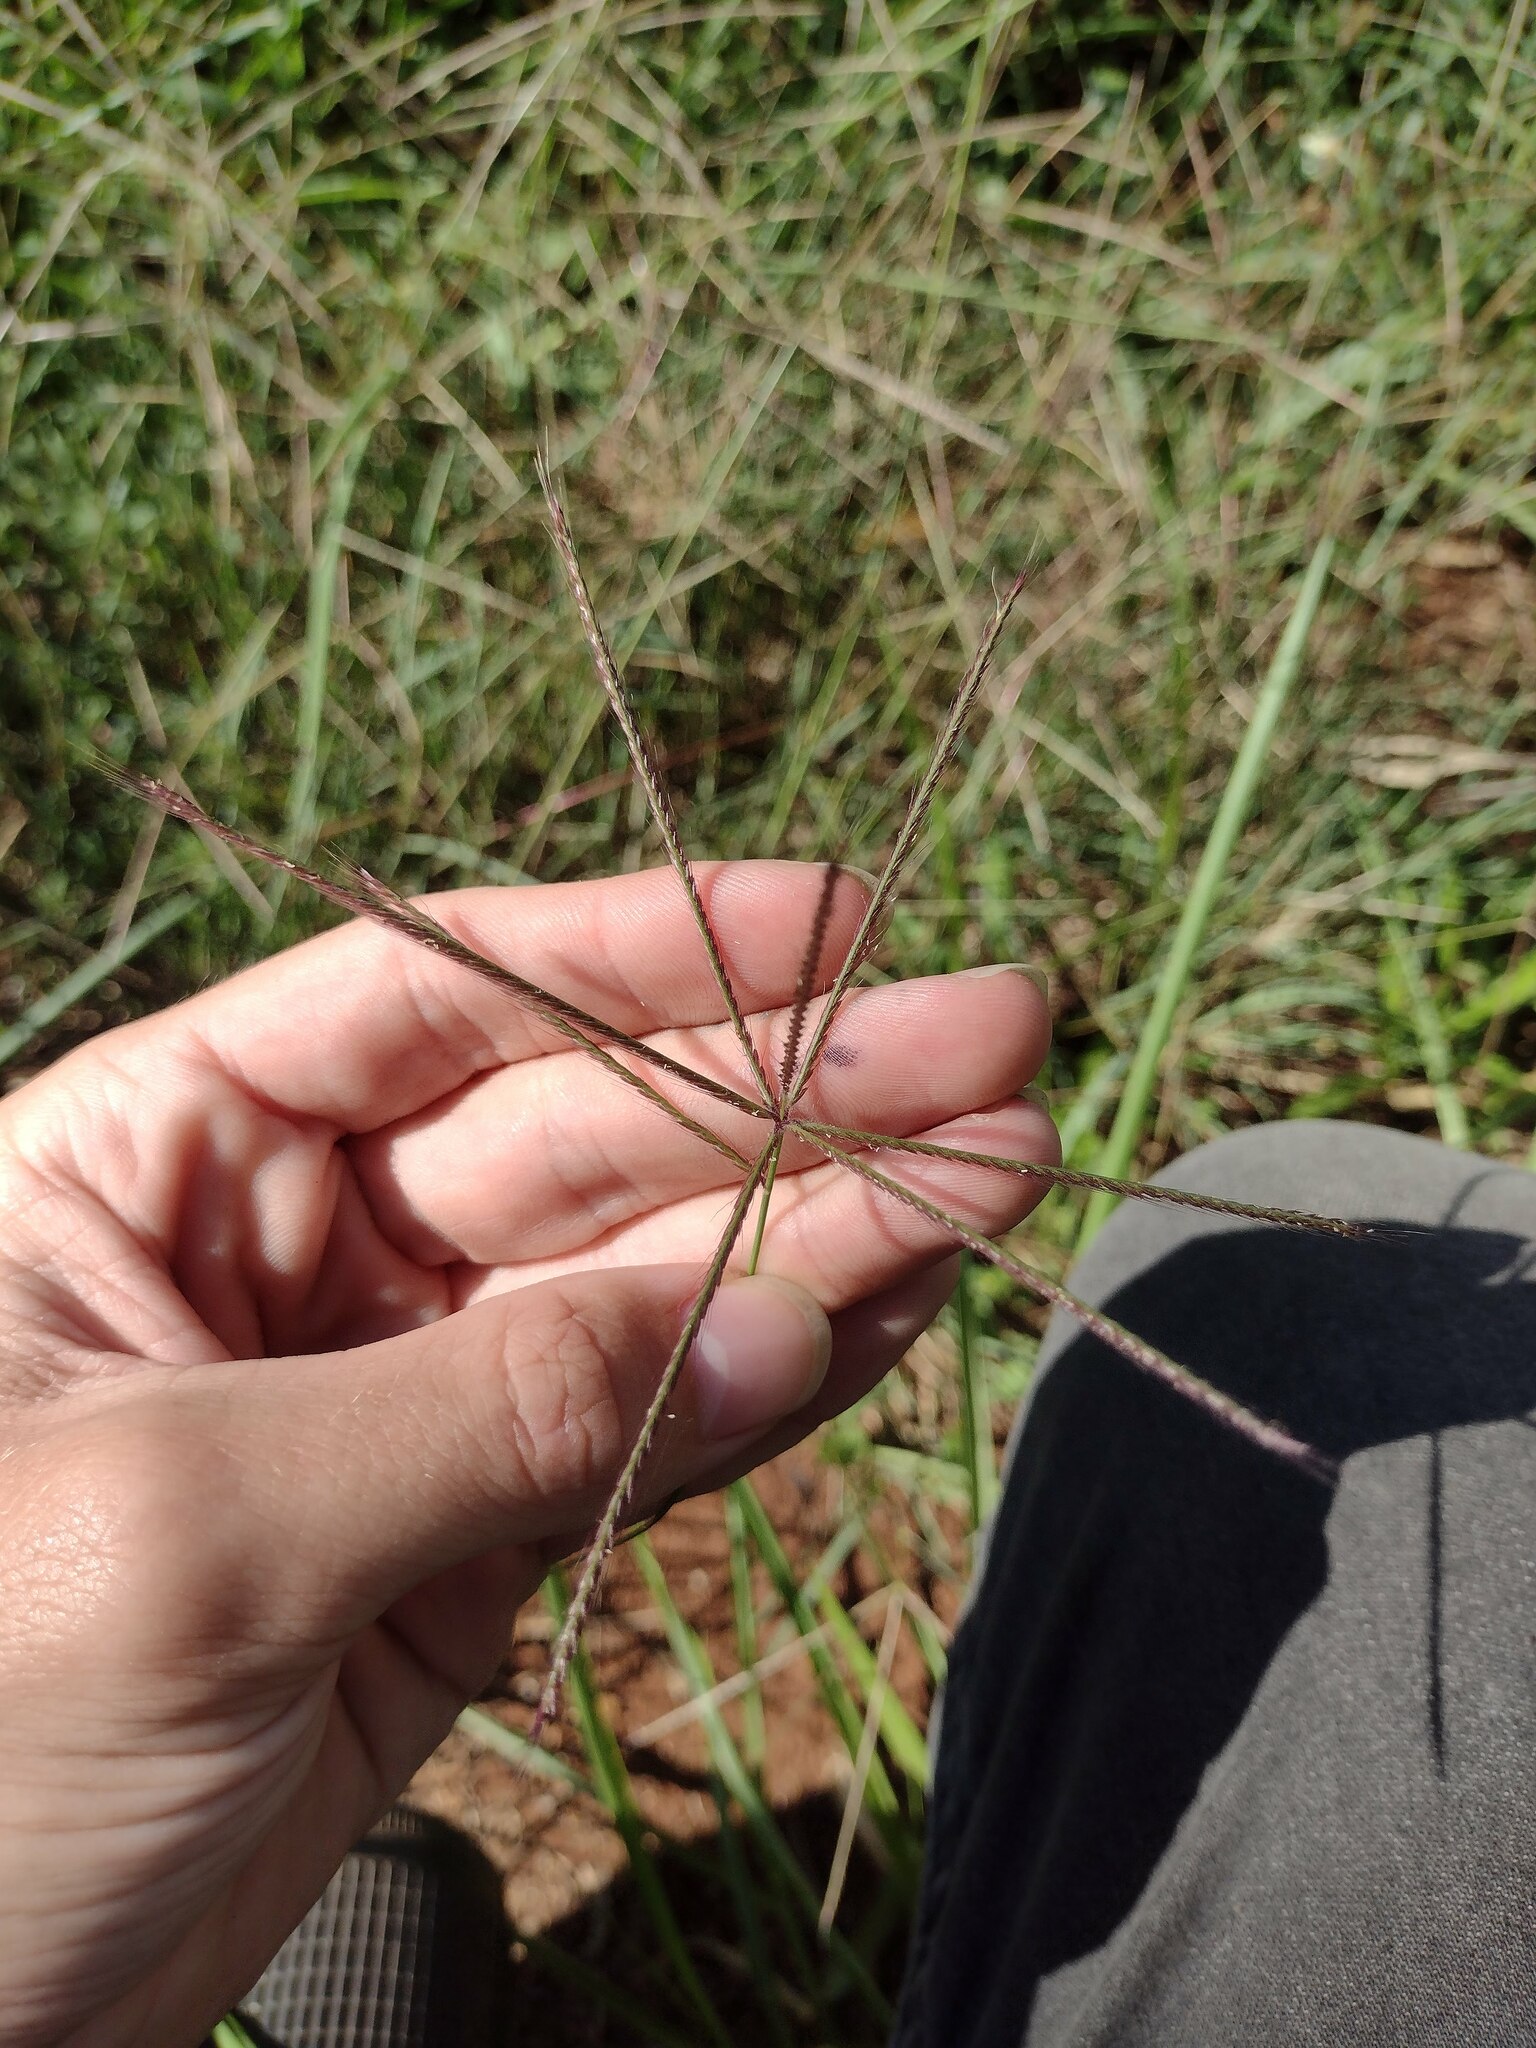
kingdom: Plantae
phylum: Tracheophyta
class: Liliopsida
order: Poales
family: Poaceae
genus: Chloris
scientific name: Chloris
